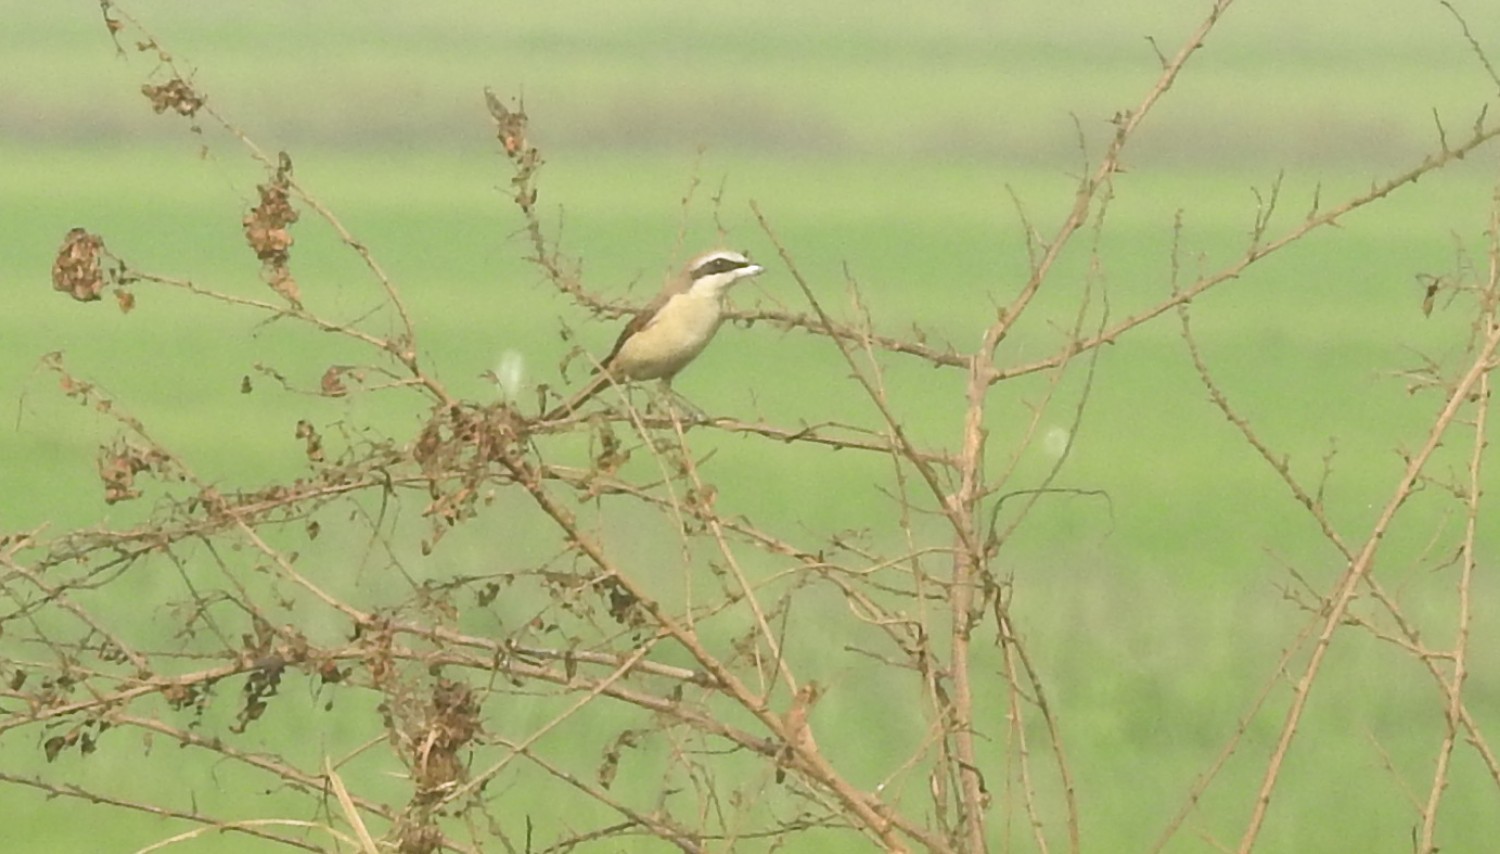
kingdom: Animalia
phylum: Chordata
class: Aves
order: Passeriformes
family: Laniidae
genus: Lanius
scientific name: Lanius cristatus
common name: Brown shrike
